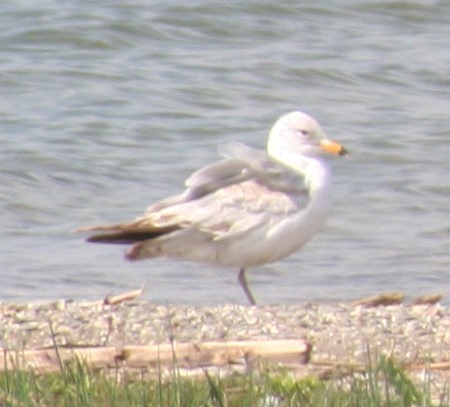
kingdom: Animalia
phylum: Chordata
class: Aves
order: Charadriiformes
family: Laridae
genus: Larus
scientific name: Larus delawarensis
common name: Ring-billed gull
